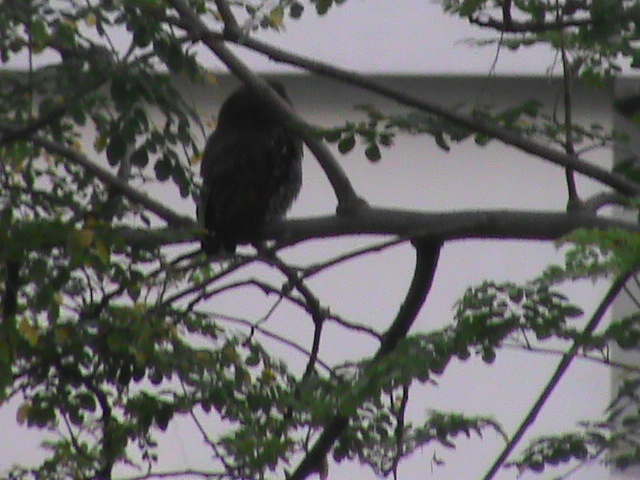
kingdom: Animalia
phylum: Chordata
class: Aves
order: Strigiformes
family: Strigidae
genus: Glaucidium
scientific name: Glaucidium radiatum
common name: Jungle owlet
